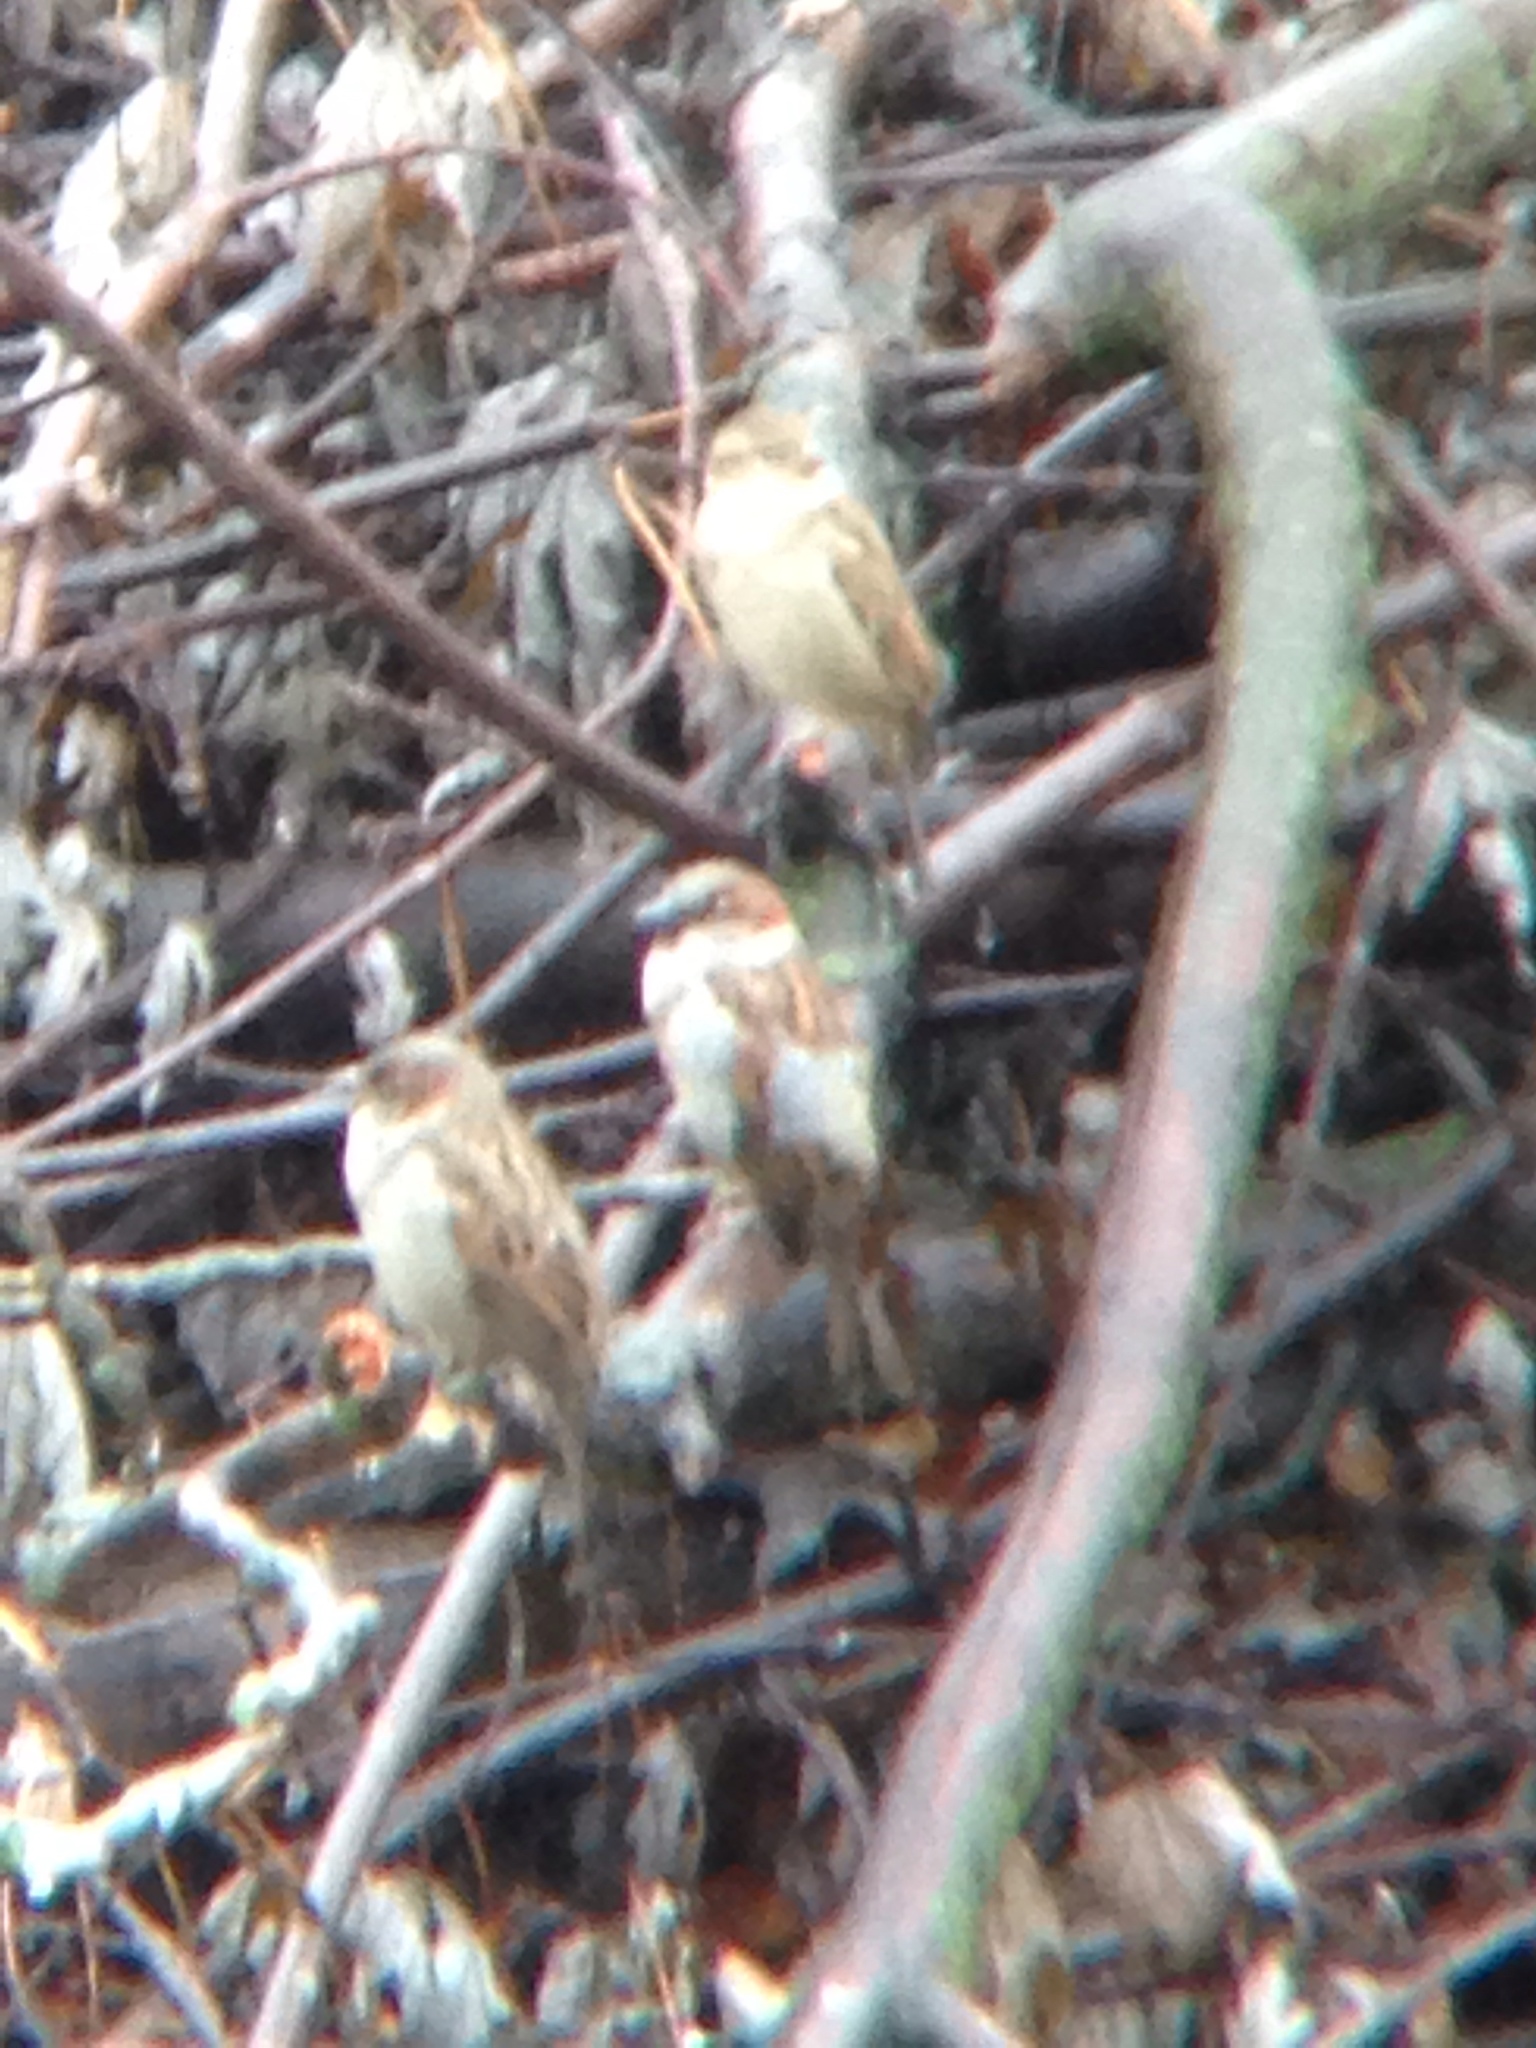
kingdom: Animalia
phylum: Chordata
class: Aves
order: Passeriformes
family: Passeridae
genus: Passer
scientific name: Passer domesticus
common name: House sparrow
